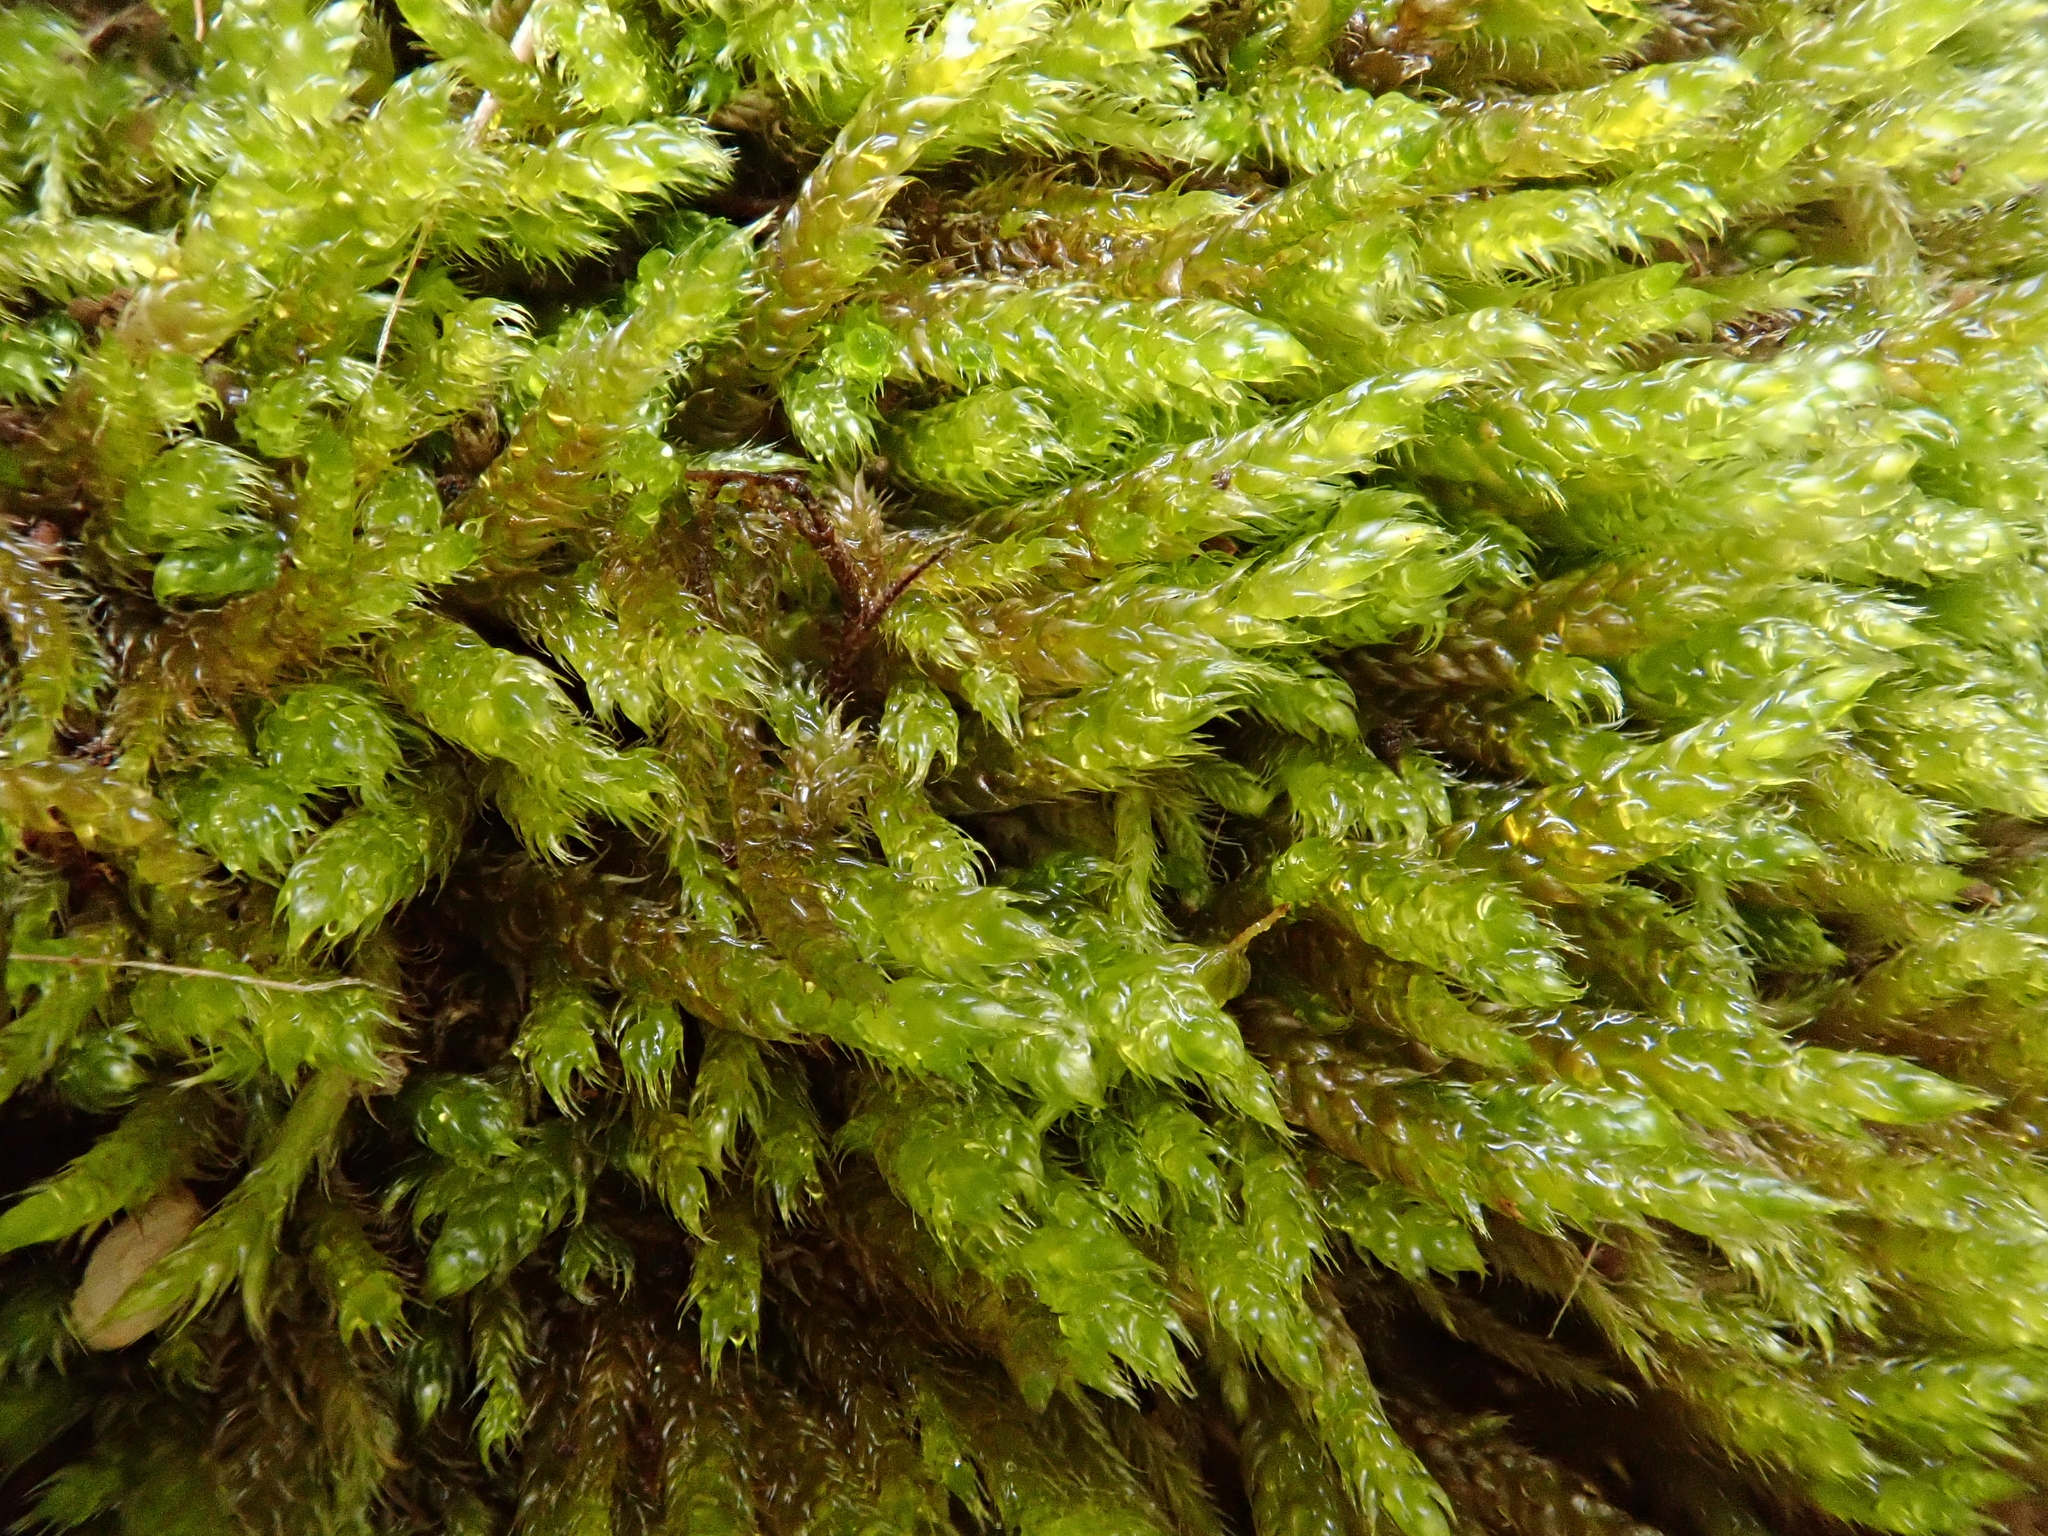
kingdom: Plantae
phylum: Bryophyta
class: Bryopsida
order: Hypnales
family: Hypnaceae
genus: Hypnum
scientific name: Hypnum cupressiforme
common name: Cypress-leaved plait-moss
